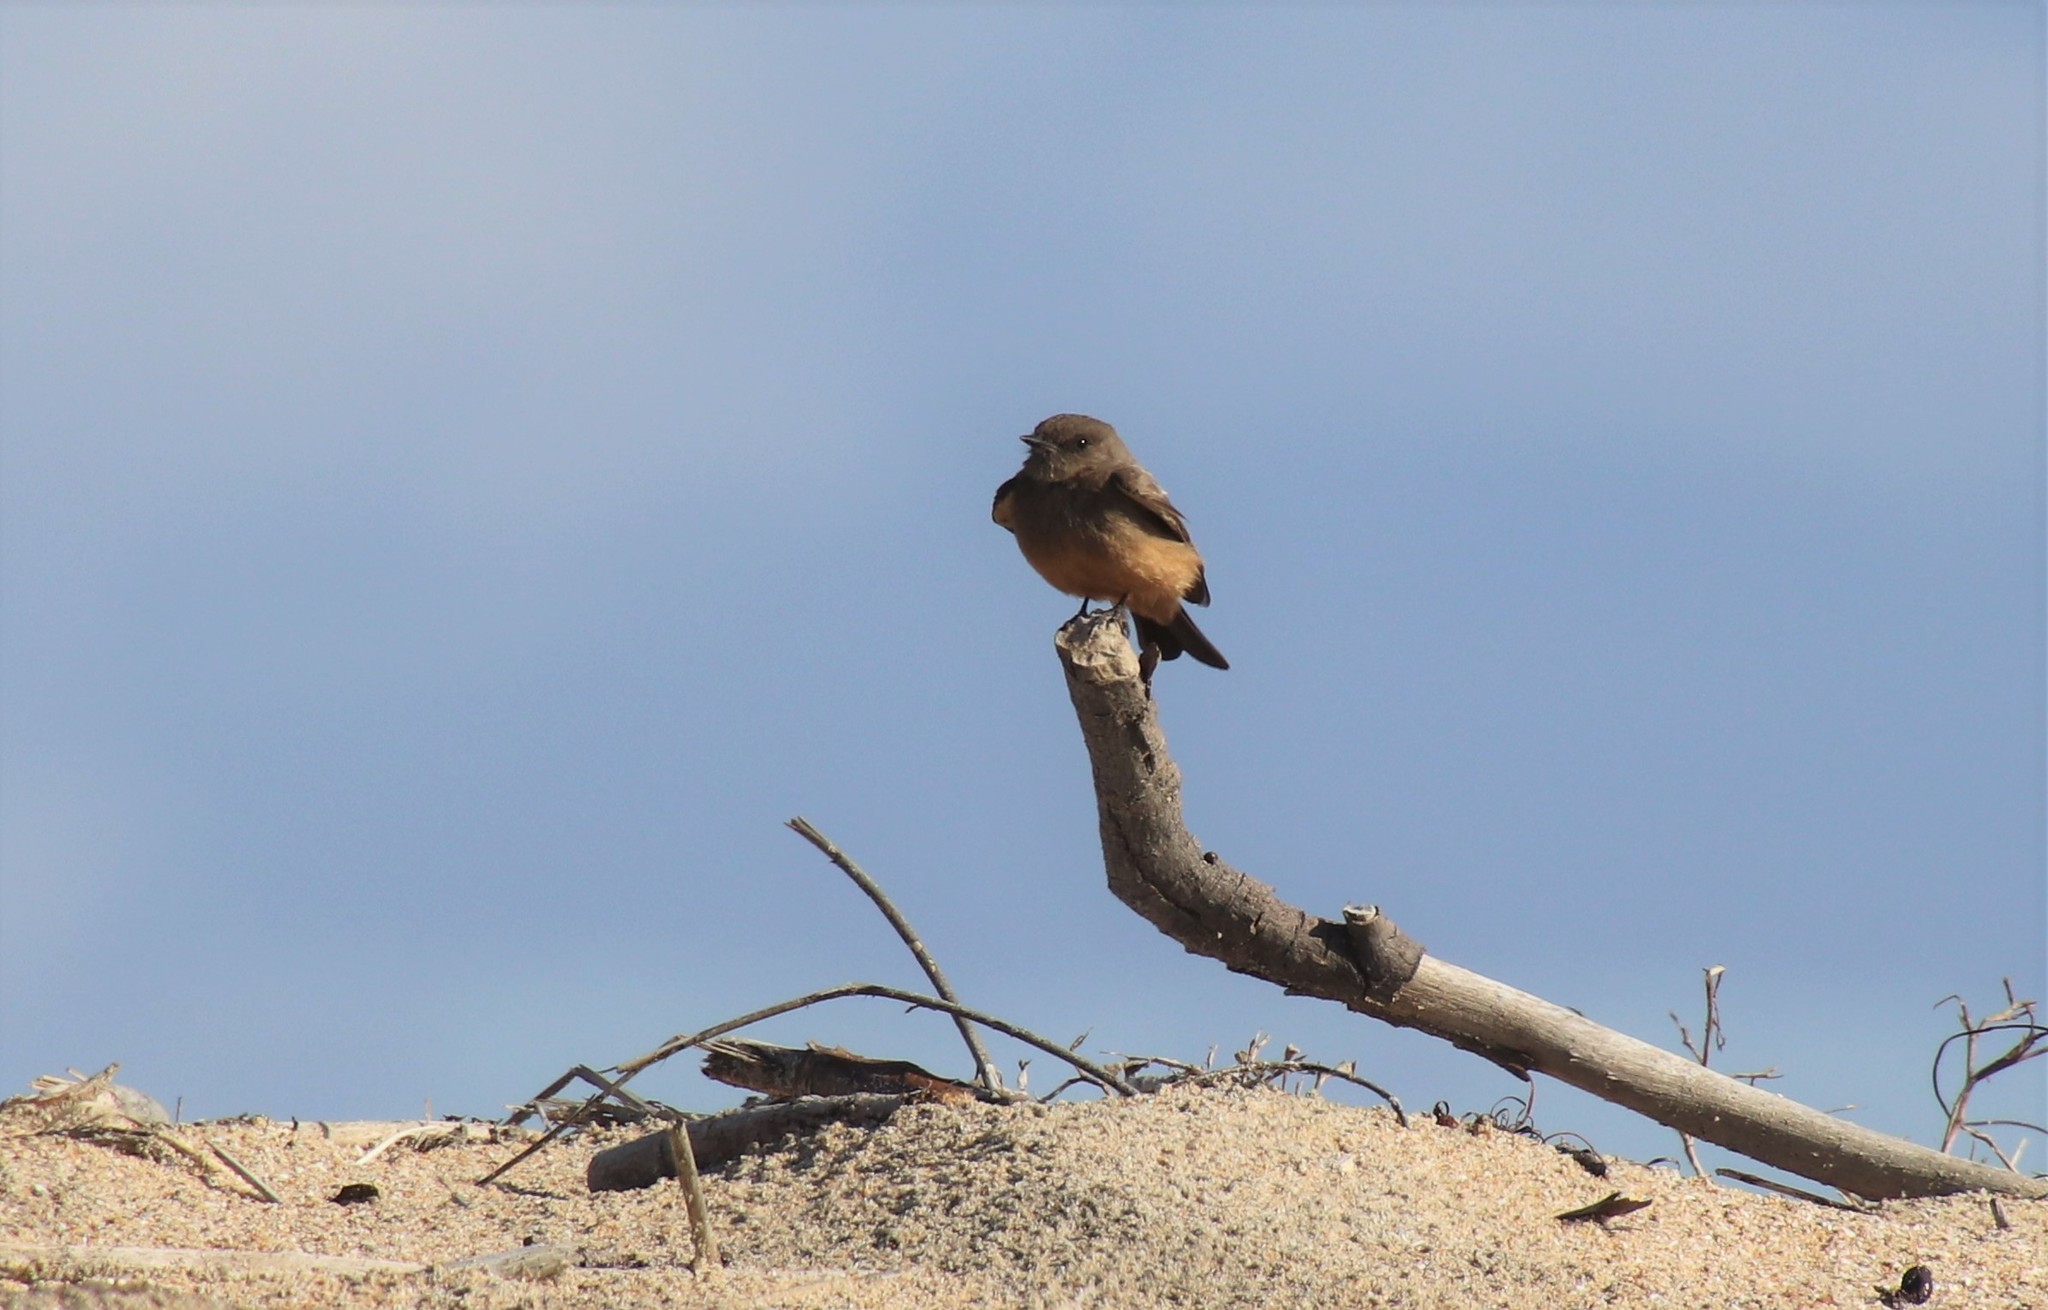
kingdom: Animalia
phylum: Chordata
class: Aves
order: Passeriformes
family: Tyrannidae
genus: Sayornis
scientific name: Sayornis saya
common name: Say's phoebe
